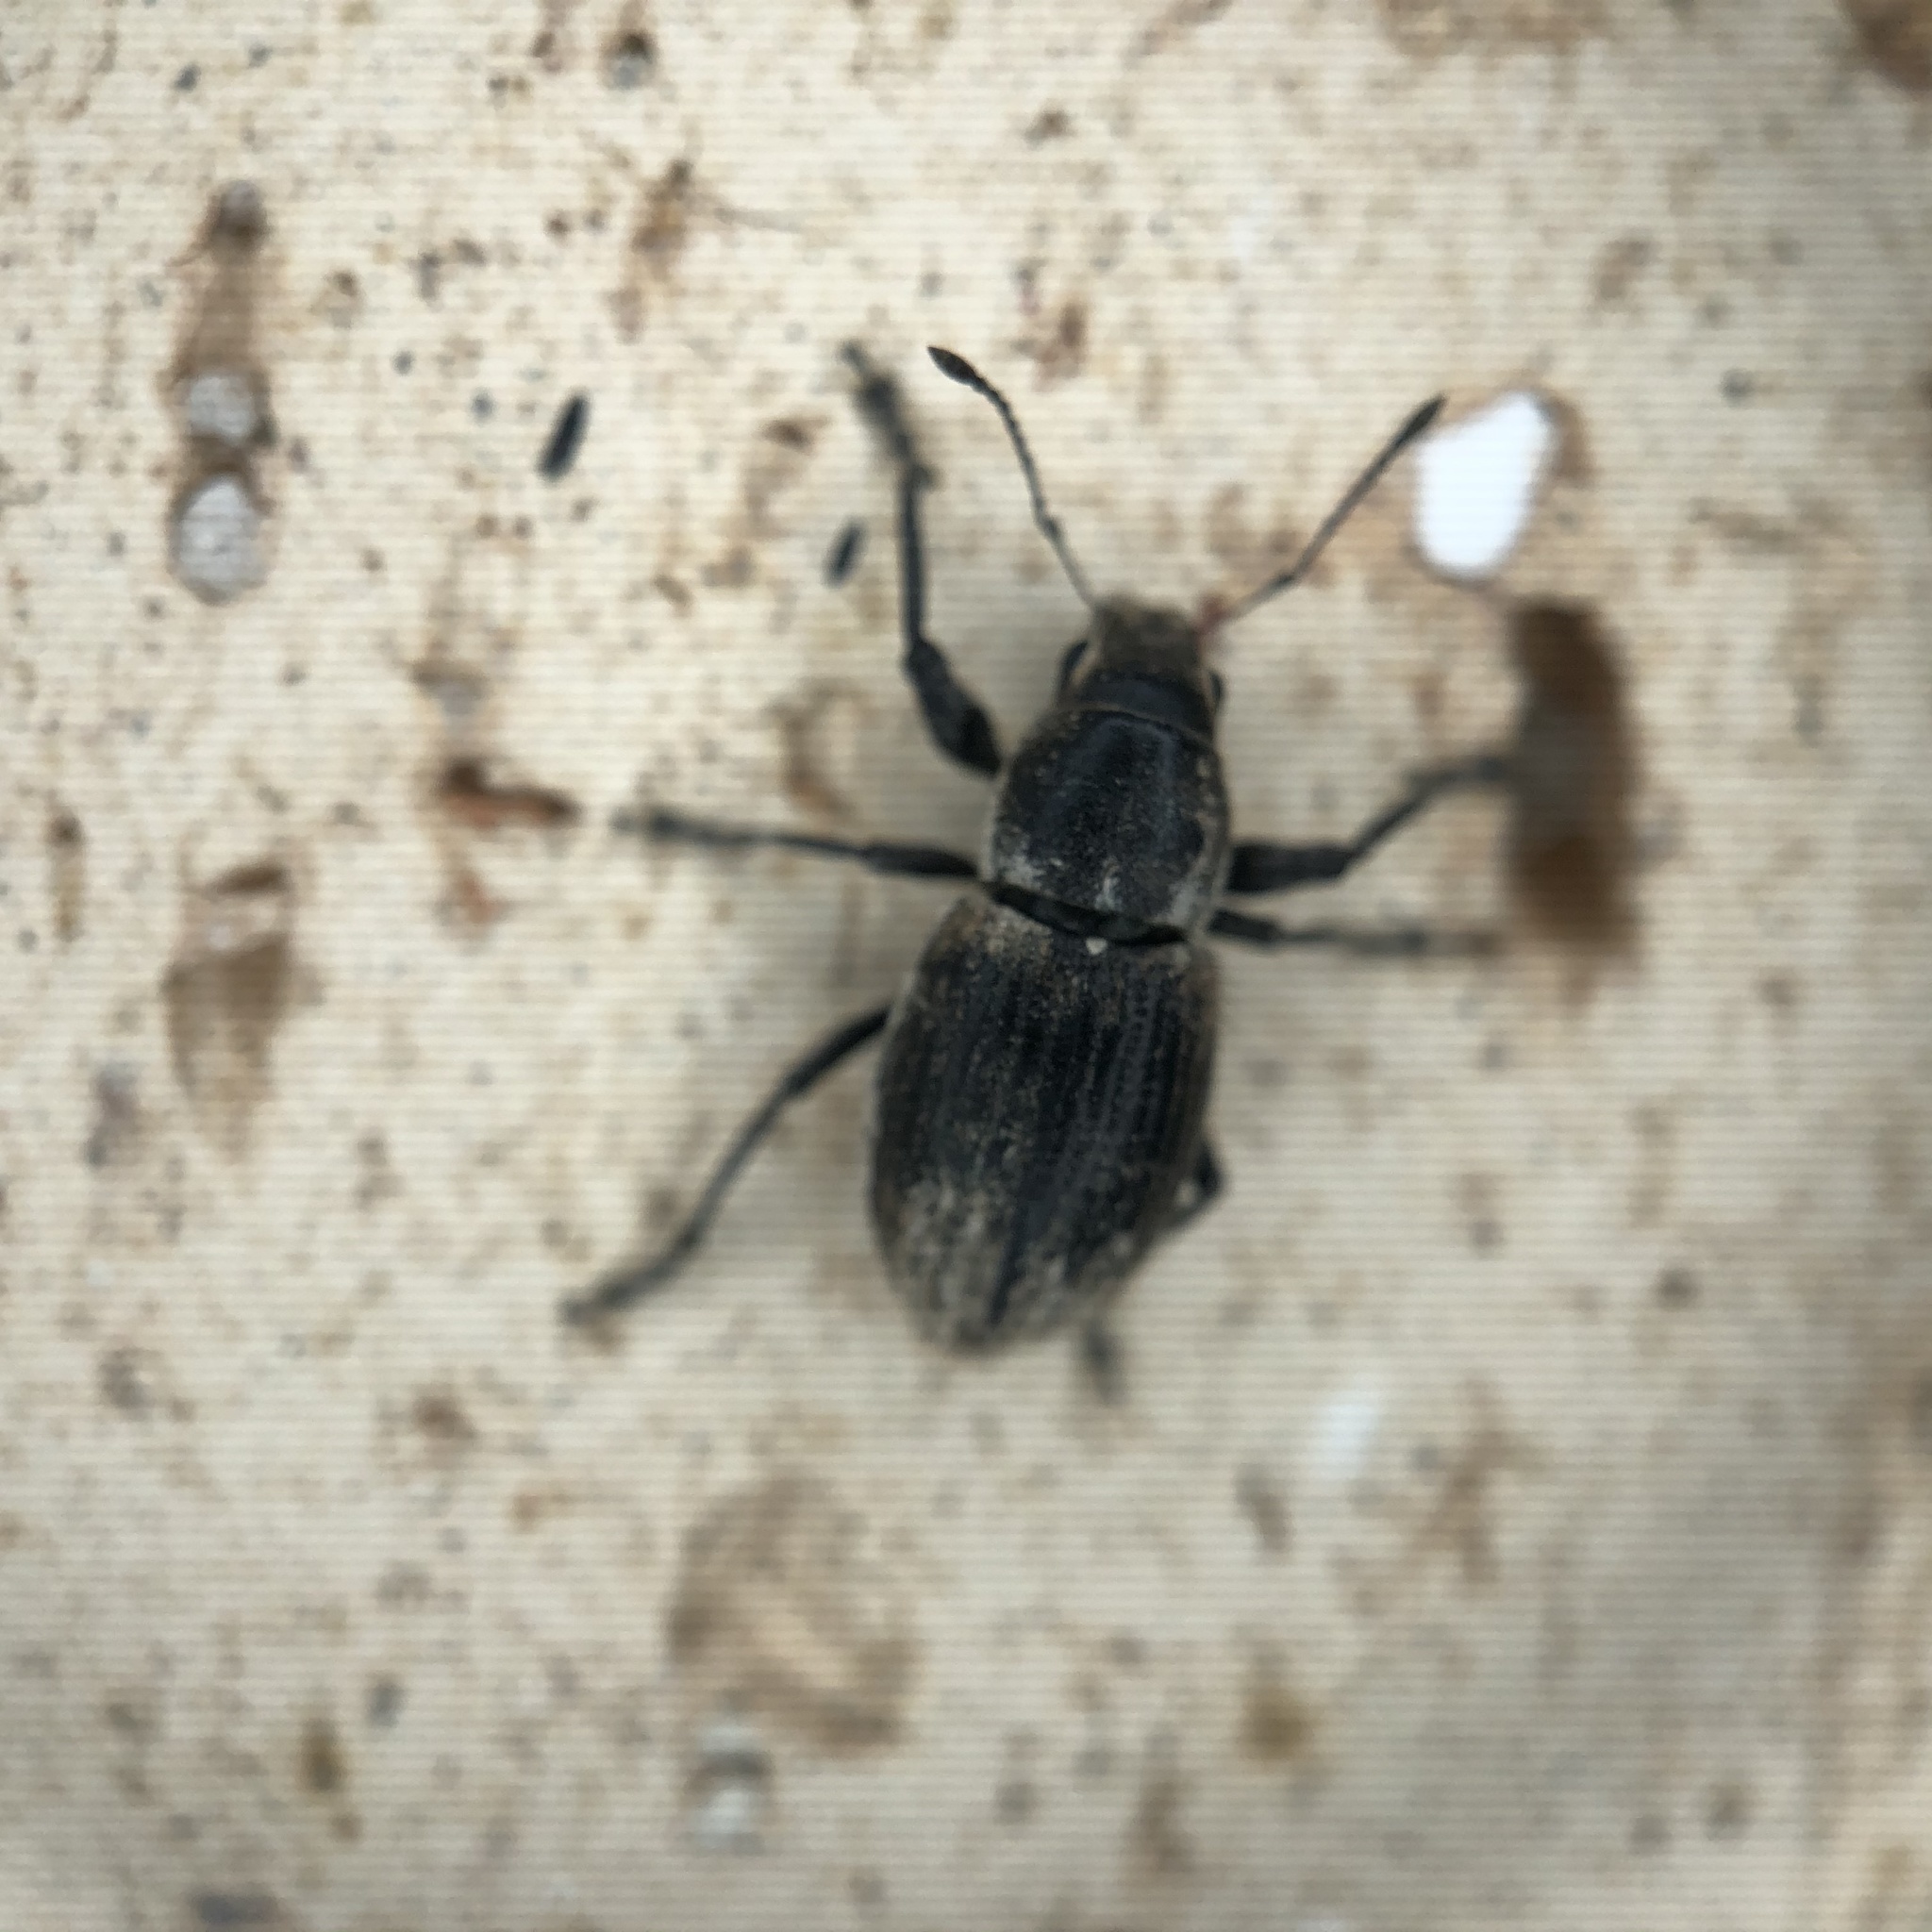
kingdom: Animalia
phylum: Arthropoda
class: Insecta
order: Coleoptera
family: Curculionidae
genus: Naupactus
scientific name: Naupactus leucoloma
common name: Whitefringed beetle
